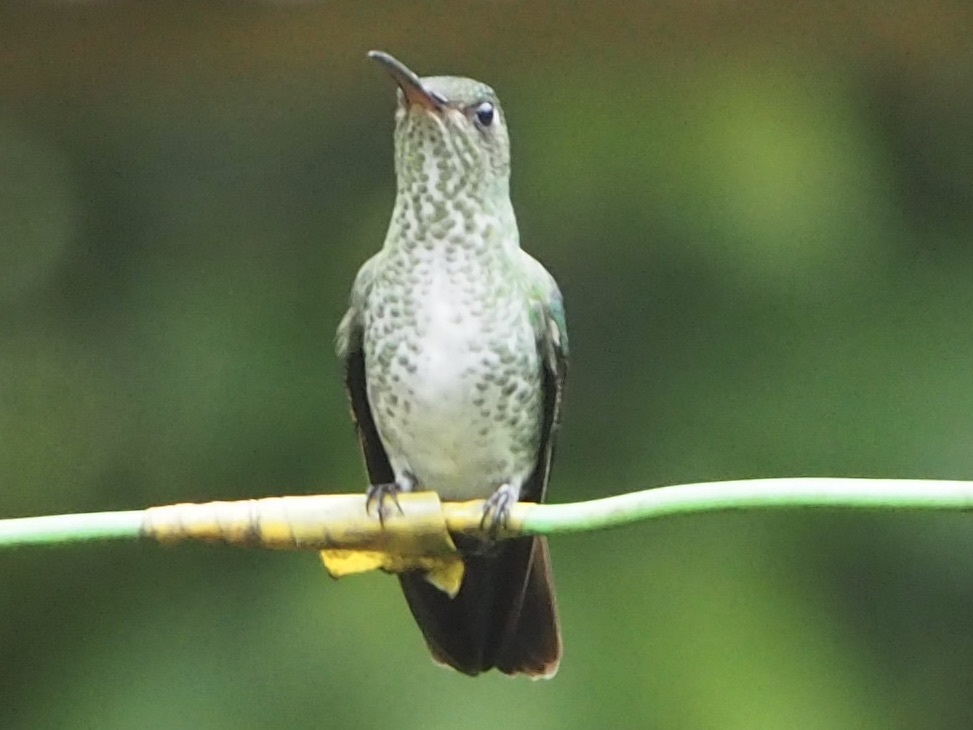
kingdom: Animalia
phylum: Chordata
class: Aves
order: Apodiformes
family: Trochilidae
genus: Taphrospilus
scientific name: Taphrospilus hypostictus
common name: Many-spotted hummingbird
